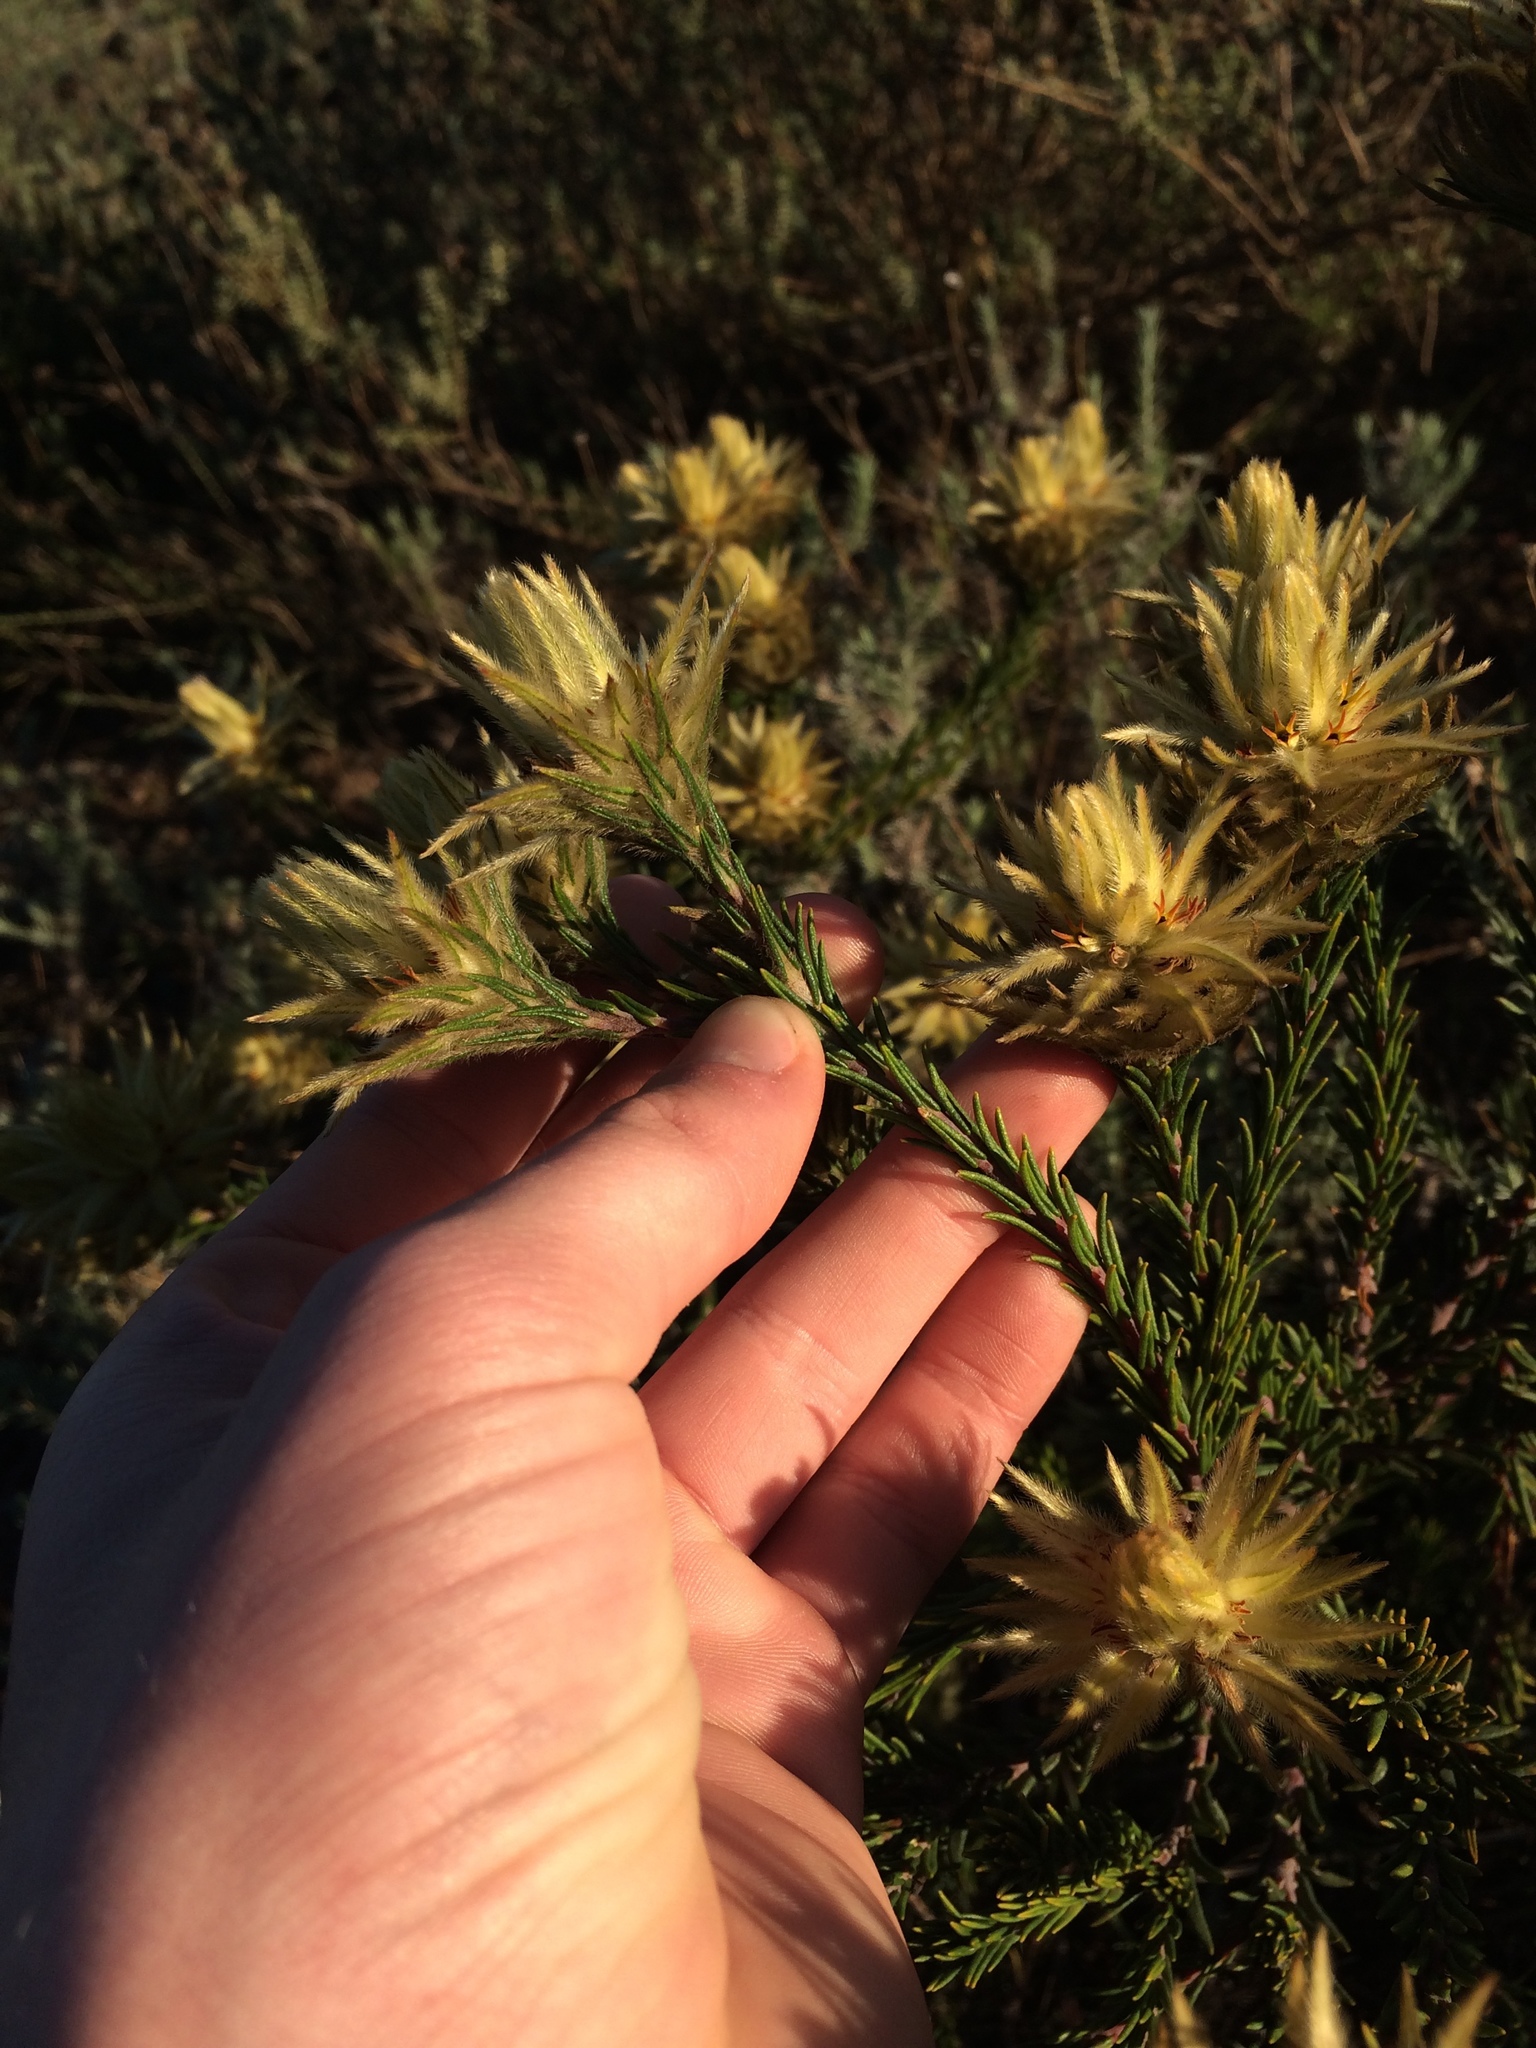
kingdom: Plantae
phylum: Tracheophyta
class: Magnoliopsida
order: Rosales
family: Rhamnaceae
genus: Phylica
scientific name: Phylica plumosa
